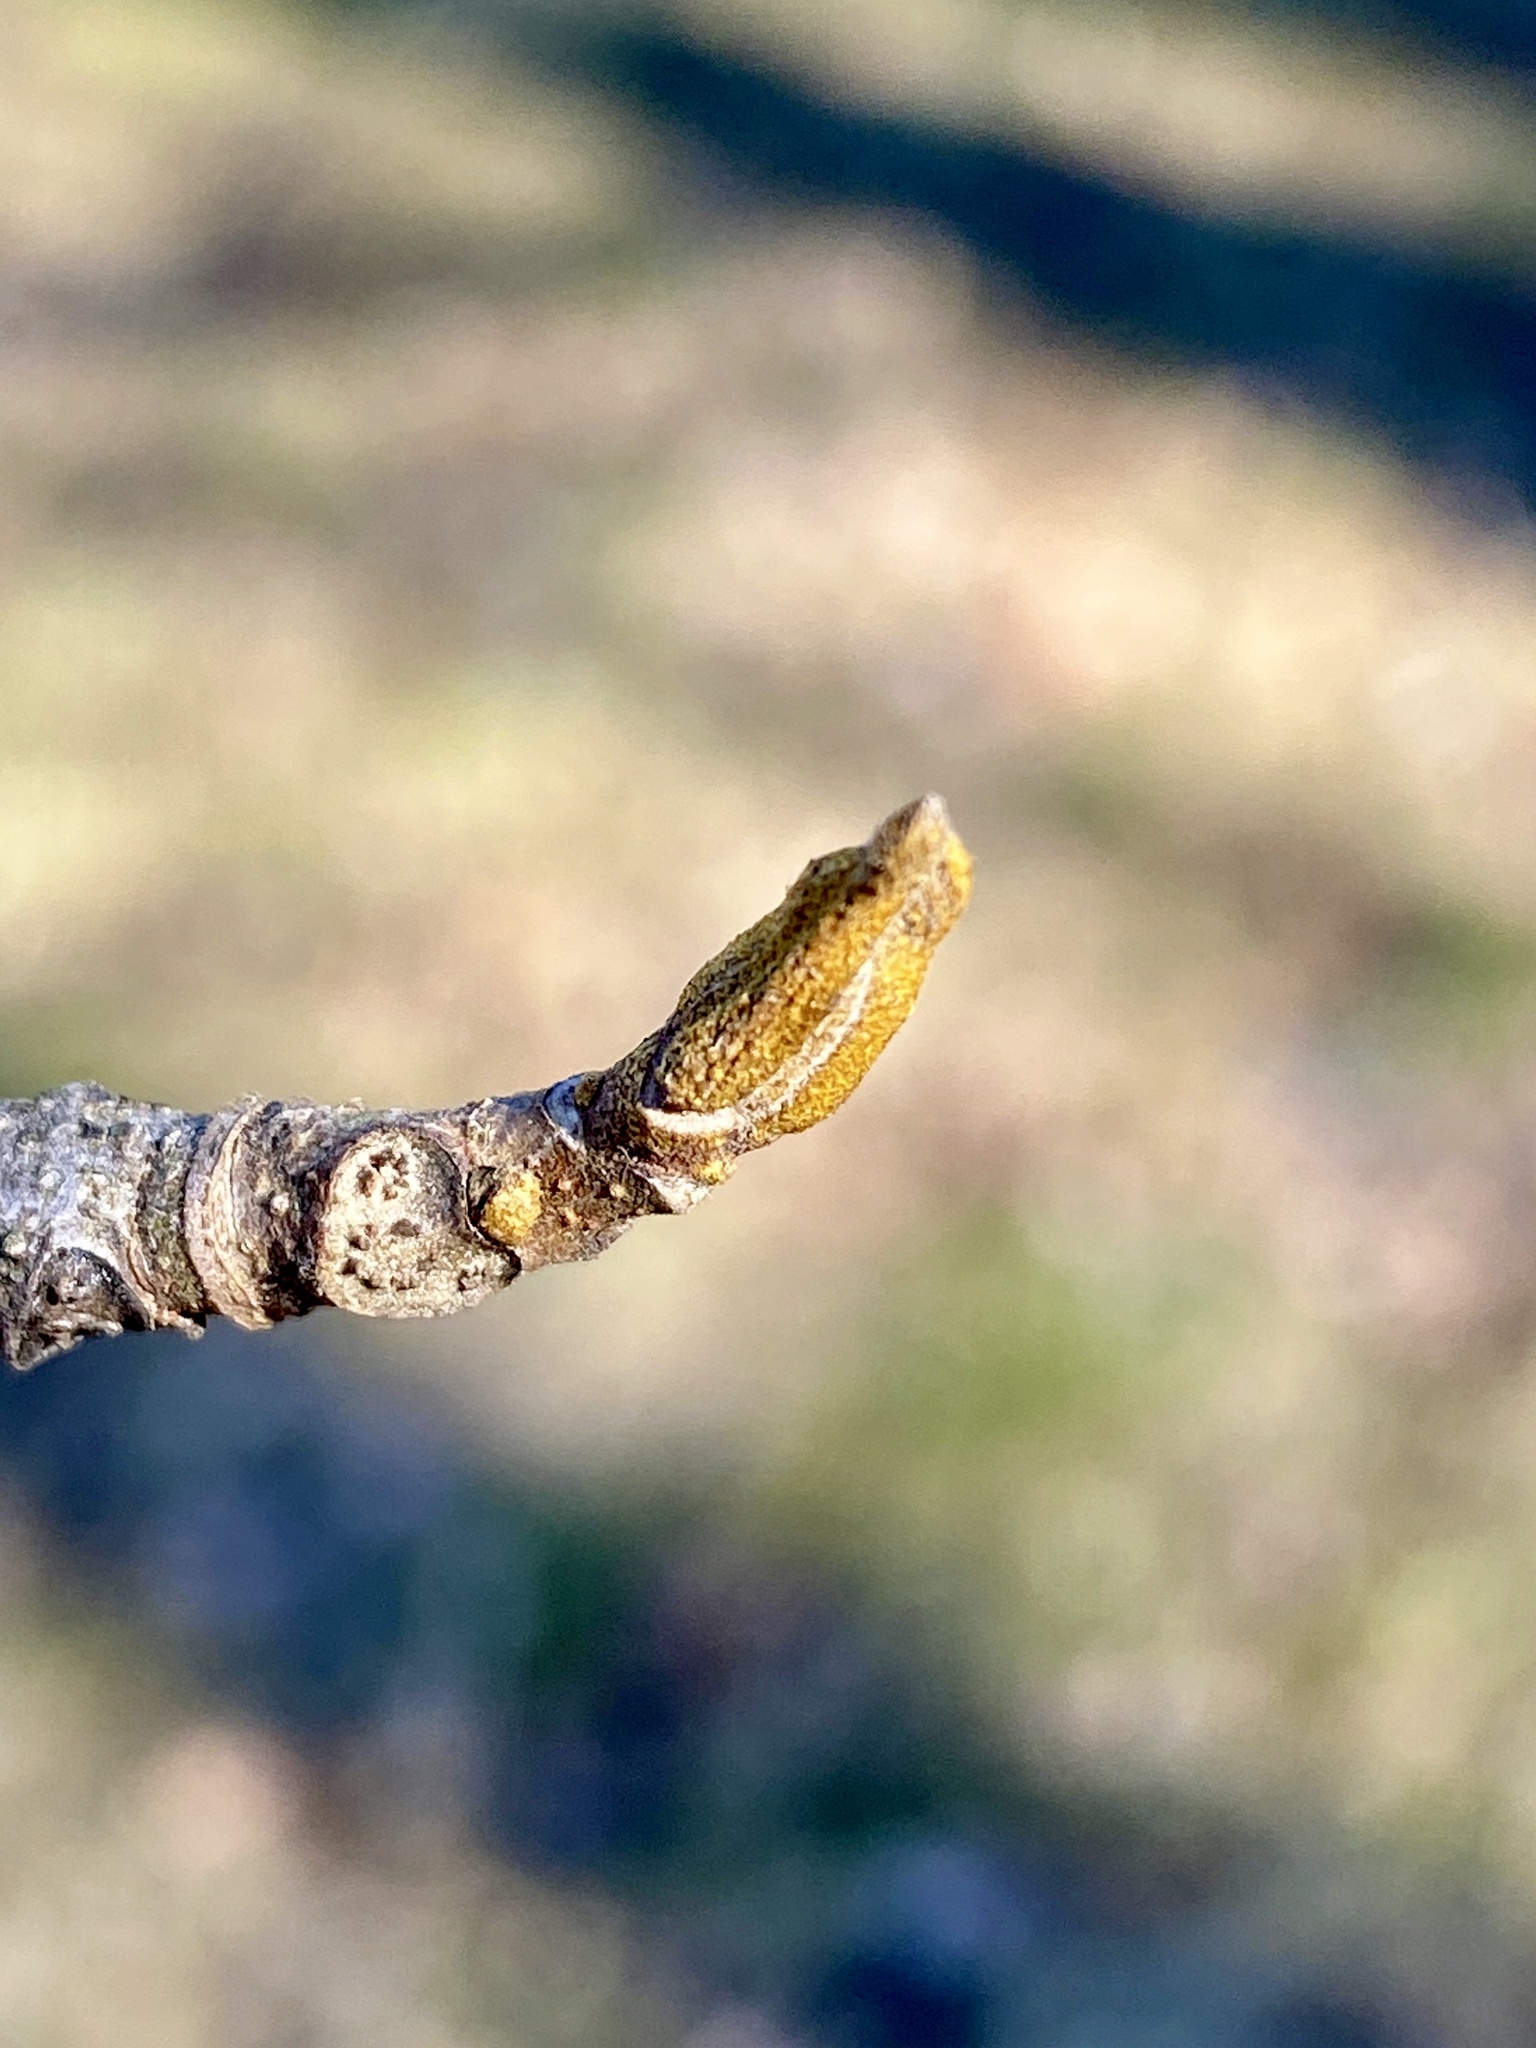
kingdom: Plantae
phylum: Tracheophyta
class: Magnoliopsida
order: Fagales
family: Juglandaceae
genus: Carya
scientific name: Carya cordiformis
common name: Bitternut hickory
